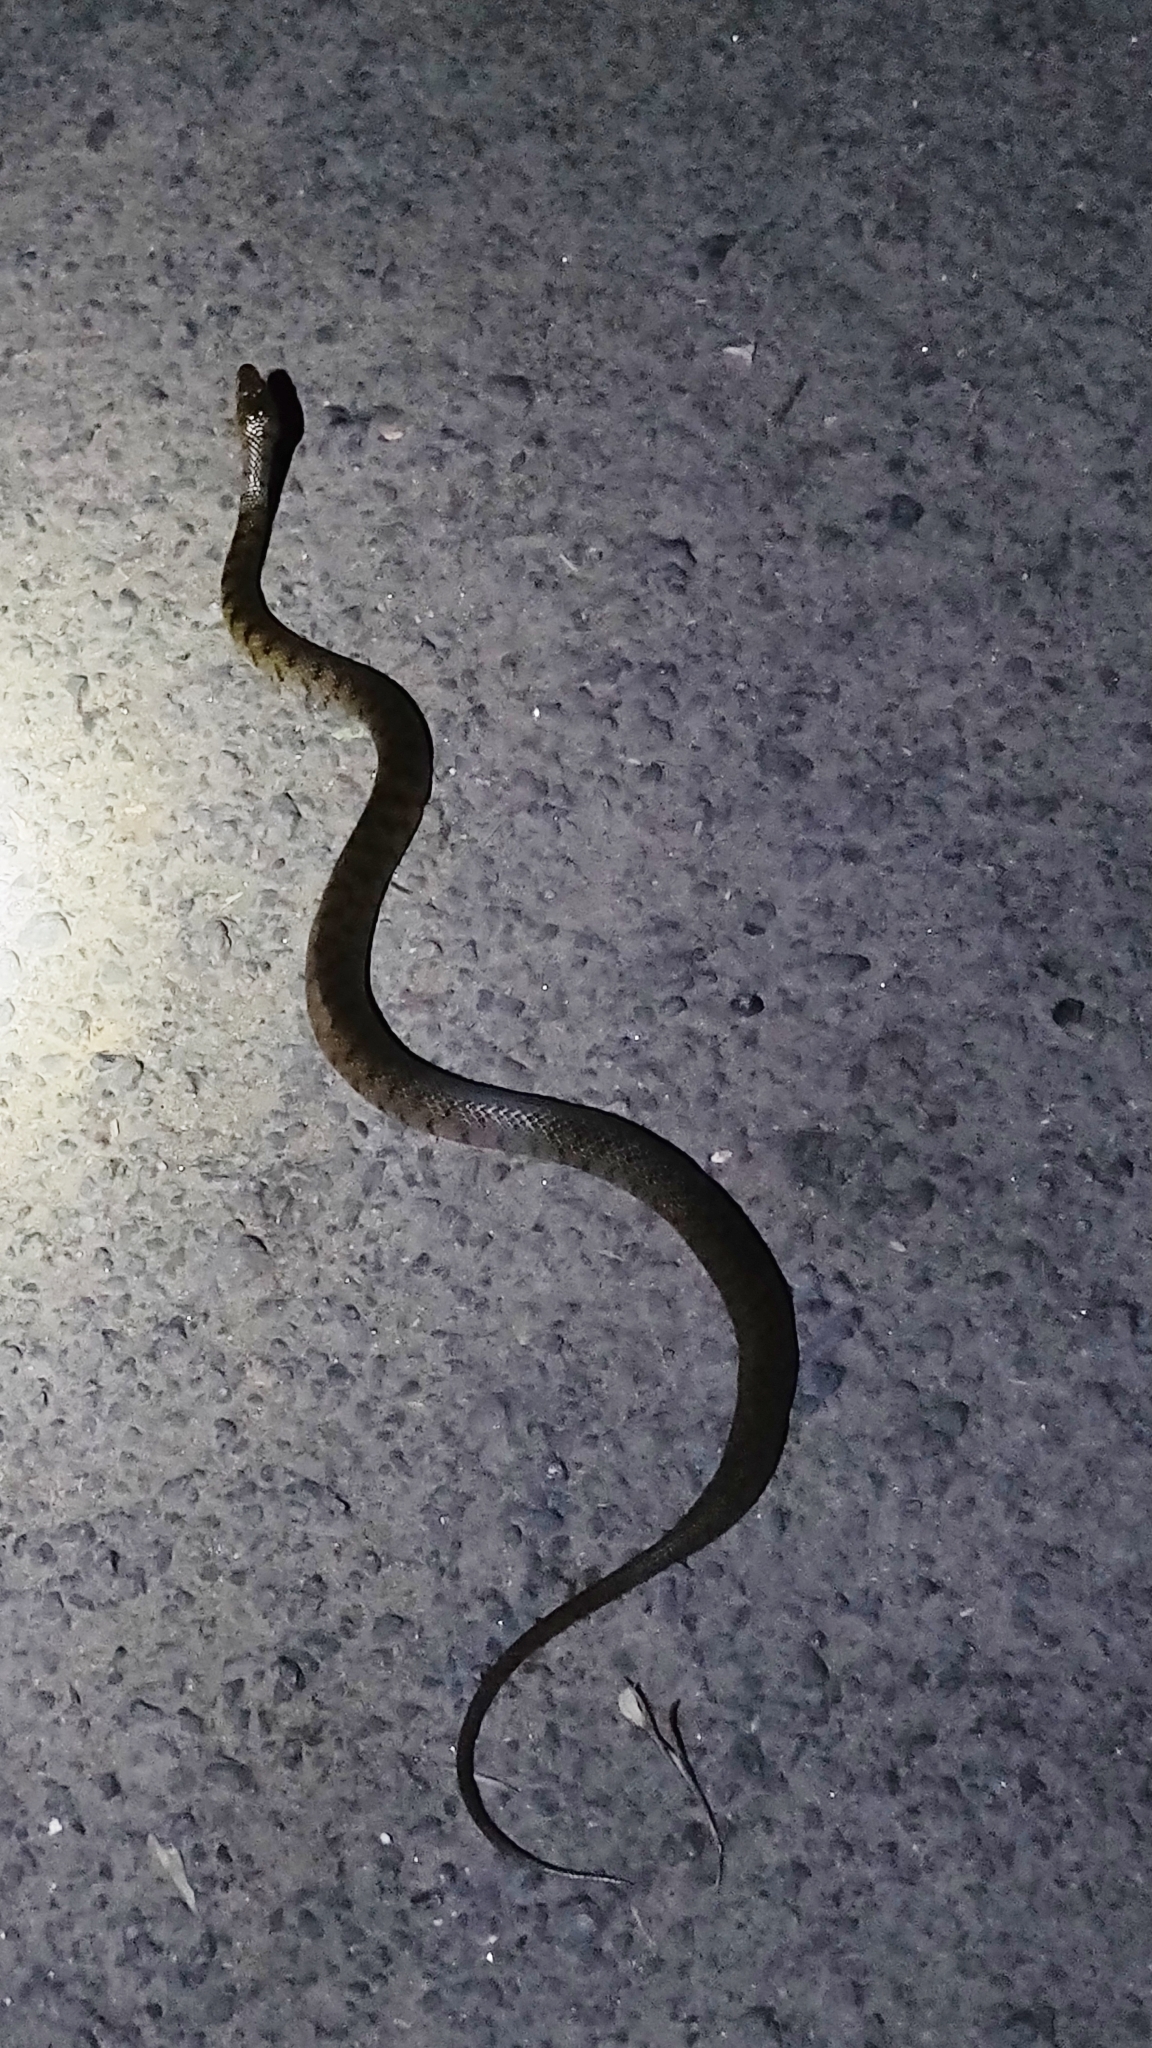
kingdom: Animalia
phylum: Chordata
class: Squamata
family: Colubridae
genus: Fowlea
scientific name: Fowlea piscator
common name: Asiatic water snake
